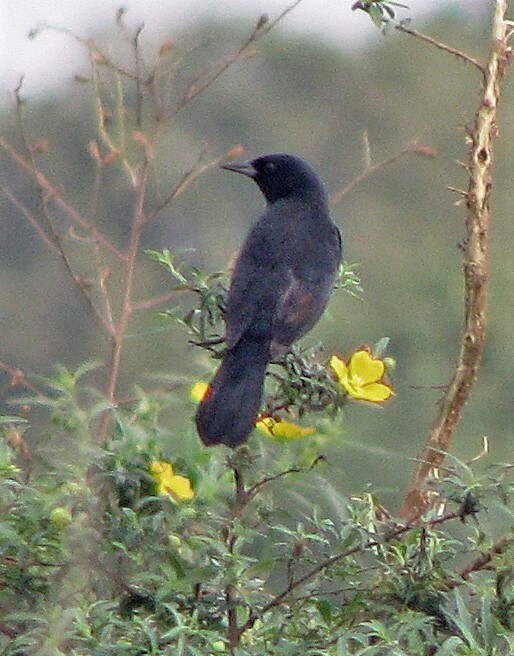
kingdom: Animalia
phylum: Chordata
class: Aves
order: Passeriformes
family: Icteridae
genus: Agelasticus
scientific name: Agelasticus cyanopus
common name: Unicolored blackbird
